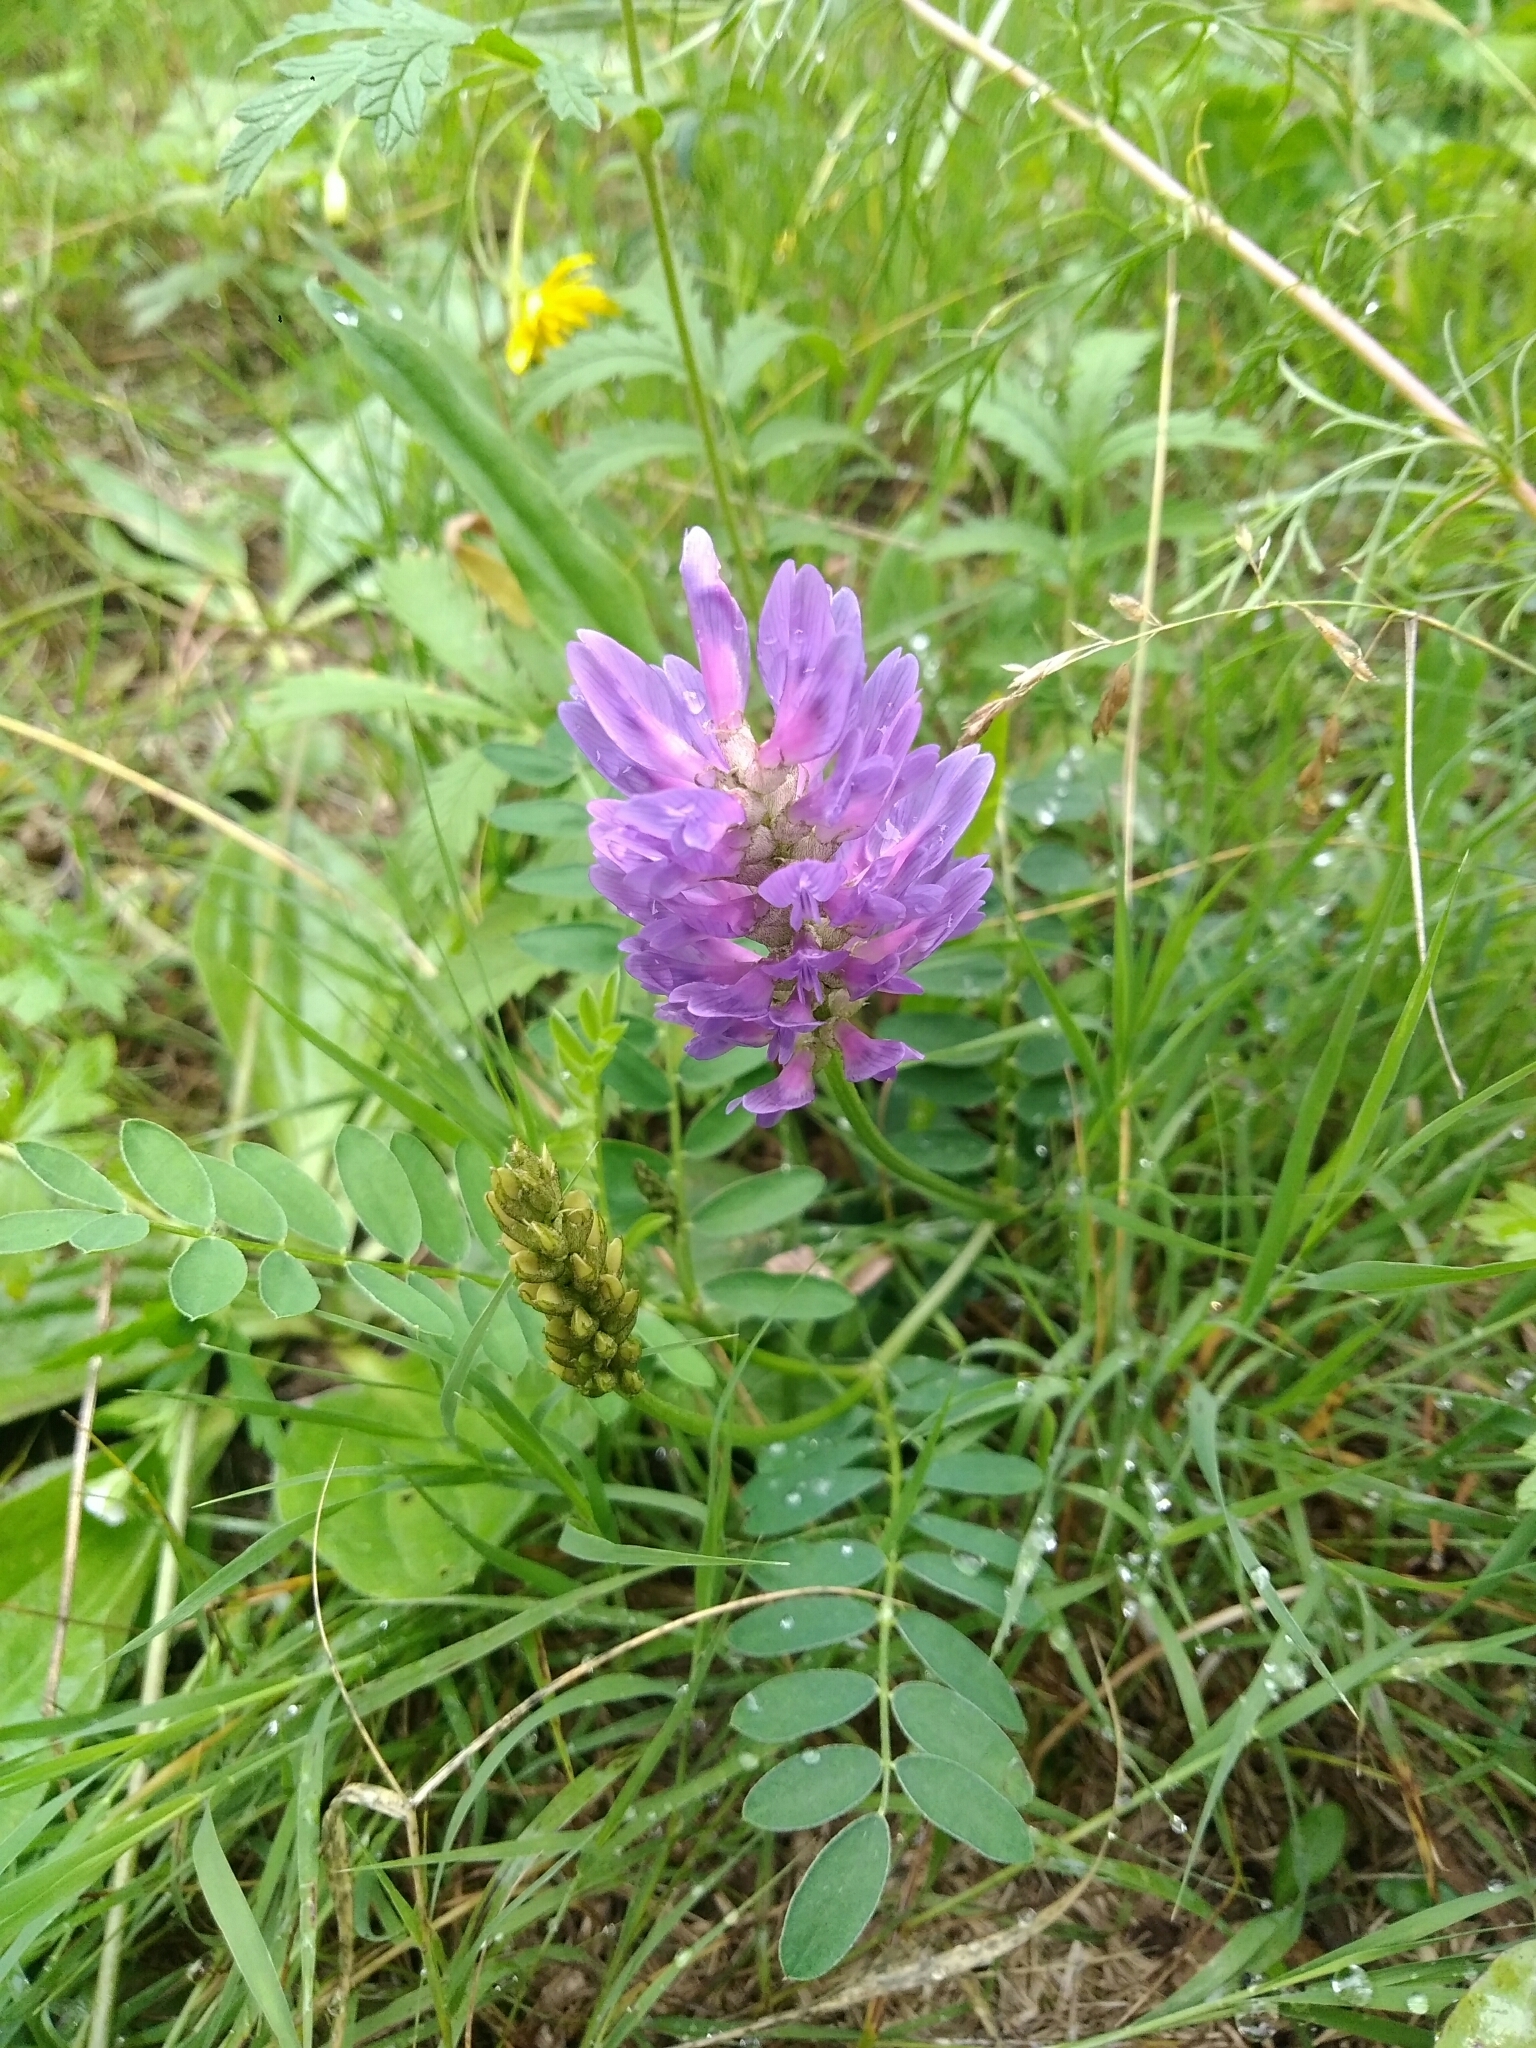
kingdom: Plantae
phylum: Tracheophyta
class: Magnoliopsida
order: Fabales
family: Fabaceae
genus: Astragalus
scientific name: Astragalus laxmannii
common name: Laxmann's milk-vetch
